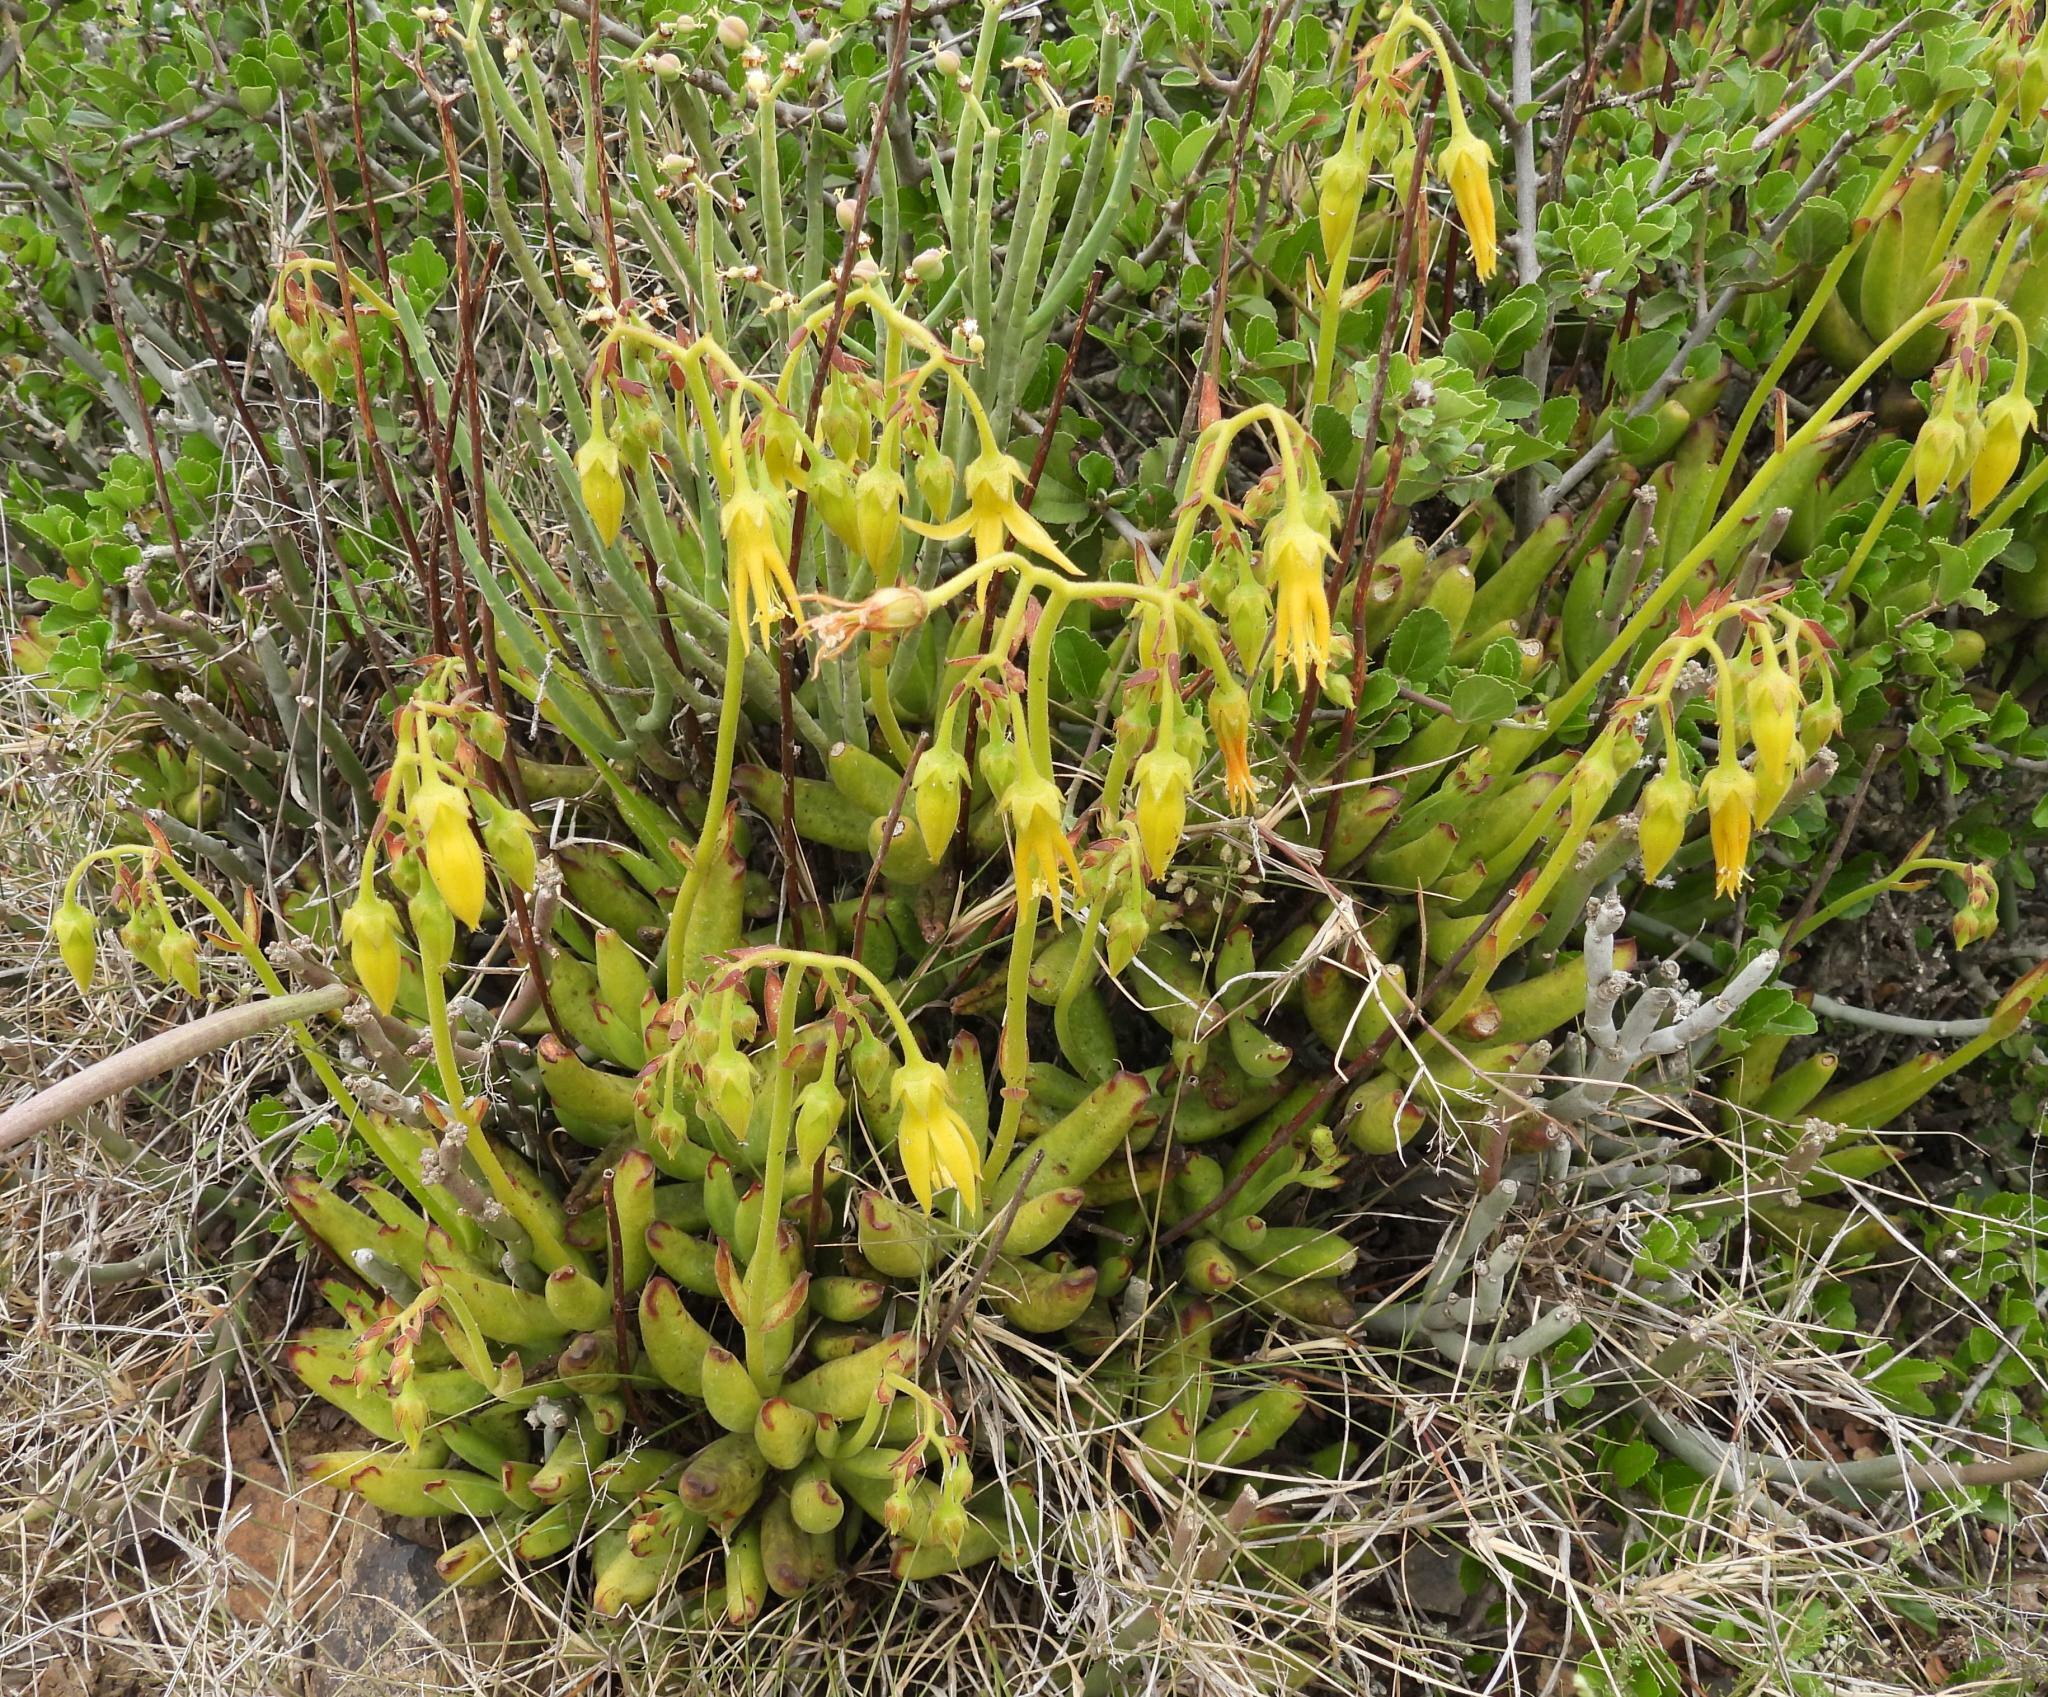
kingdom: Plantae
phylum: Tracheophyta
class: Magnoliopsida
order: Saxifragales
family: Crassulaceae
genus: Cotyledon
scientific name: Cotyledon campanulata
